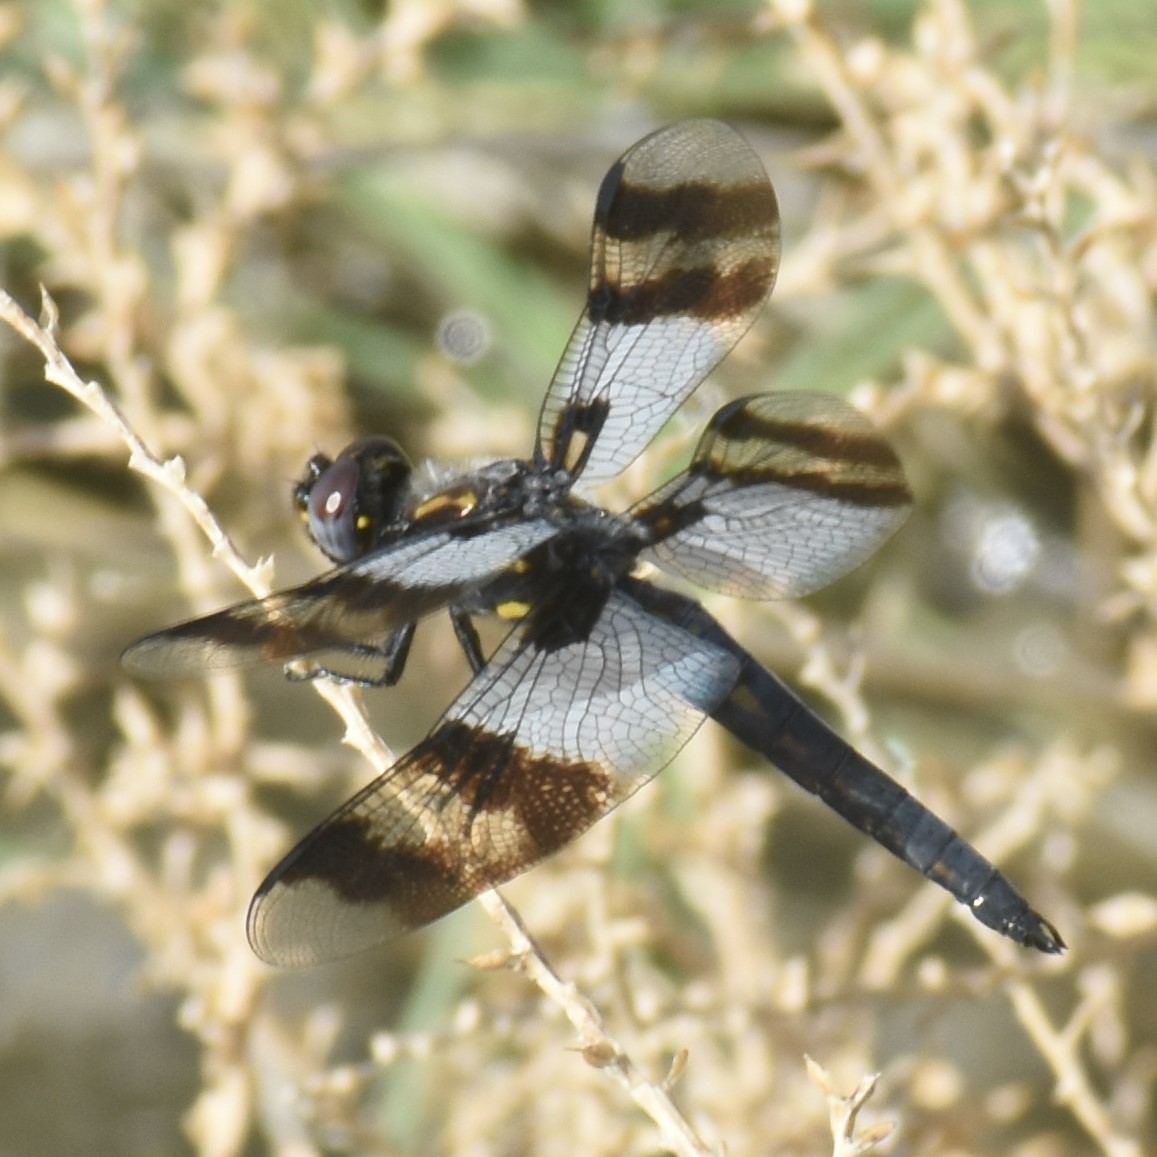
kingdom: Animalia
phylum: Arthropoda
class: Insecta
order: Odonata
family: Libellulidae
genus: Plathemis
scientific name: Plathemis subornata
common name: Desert whitetail
